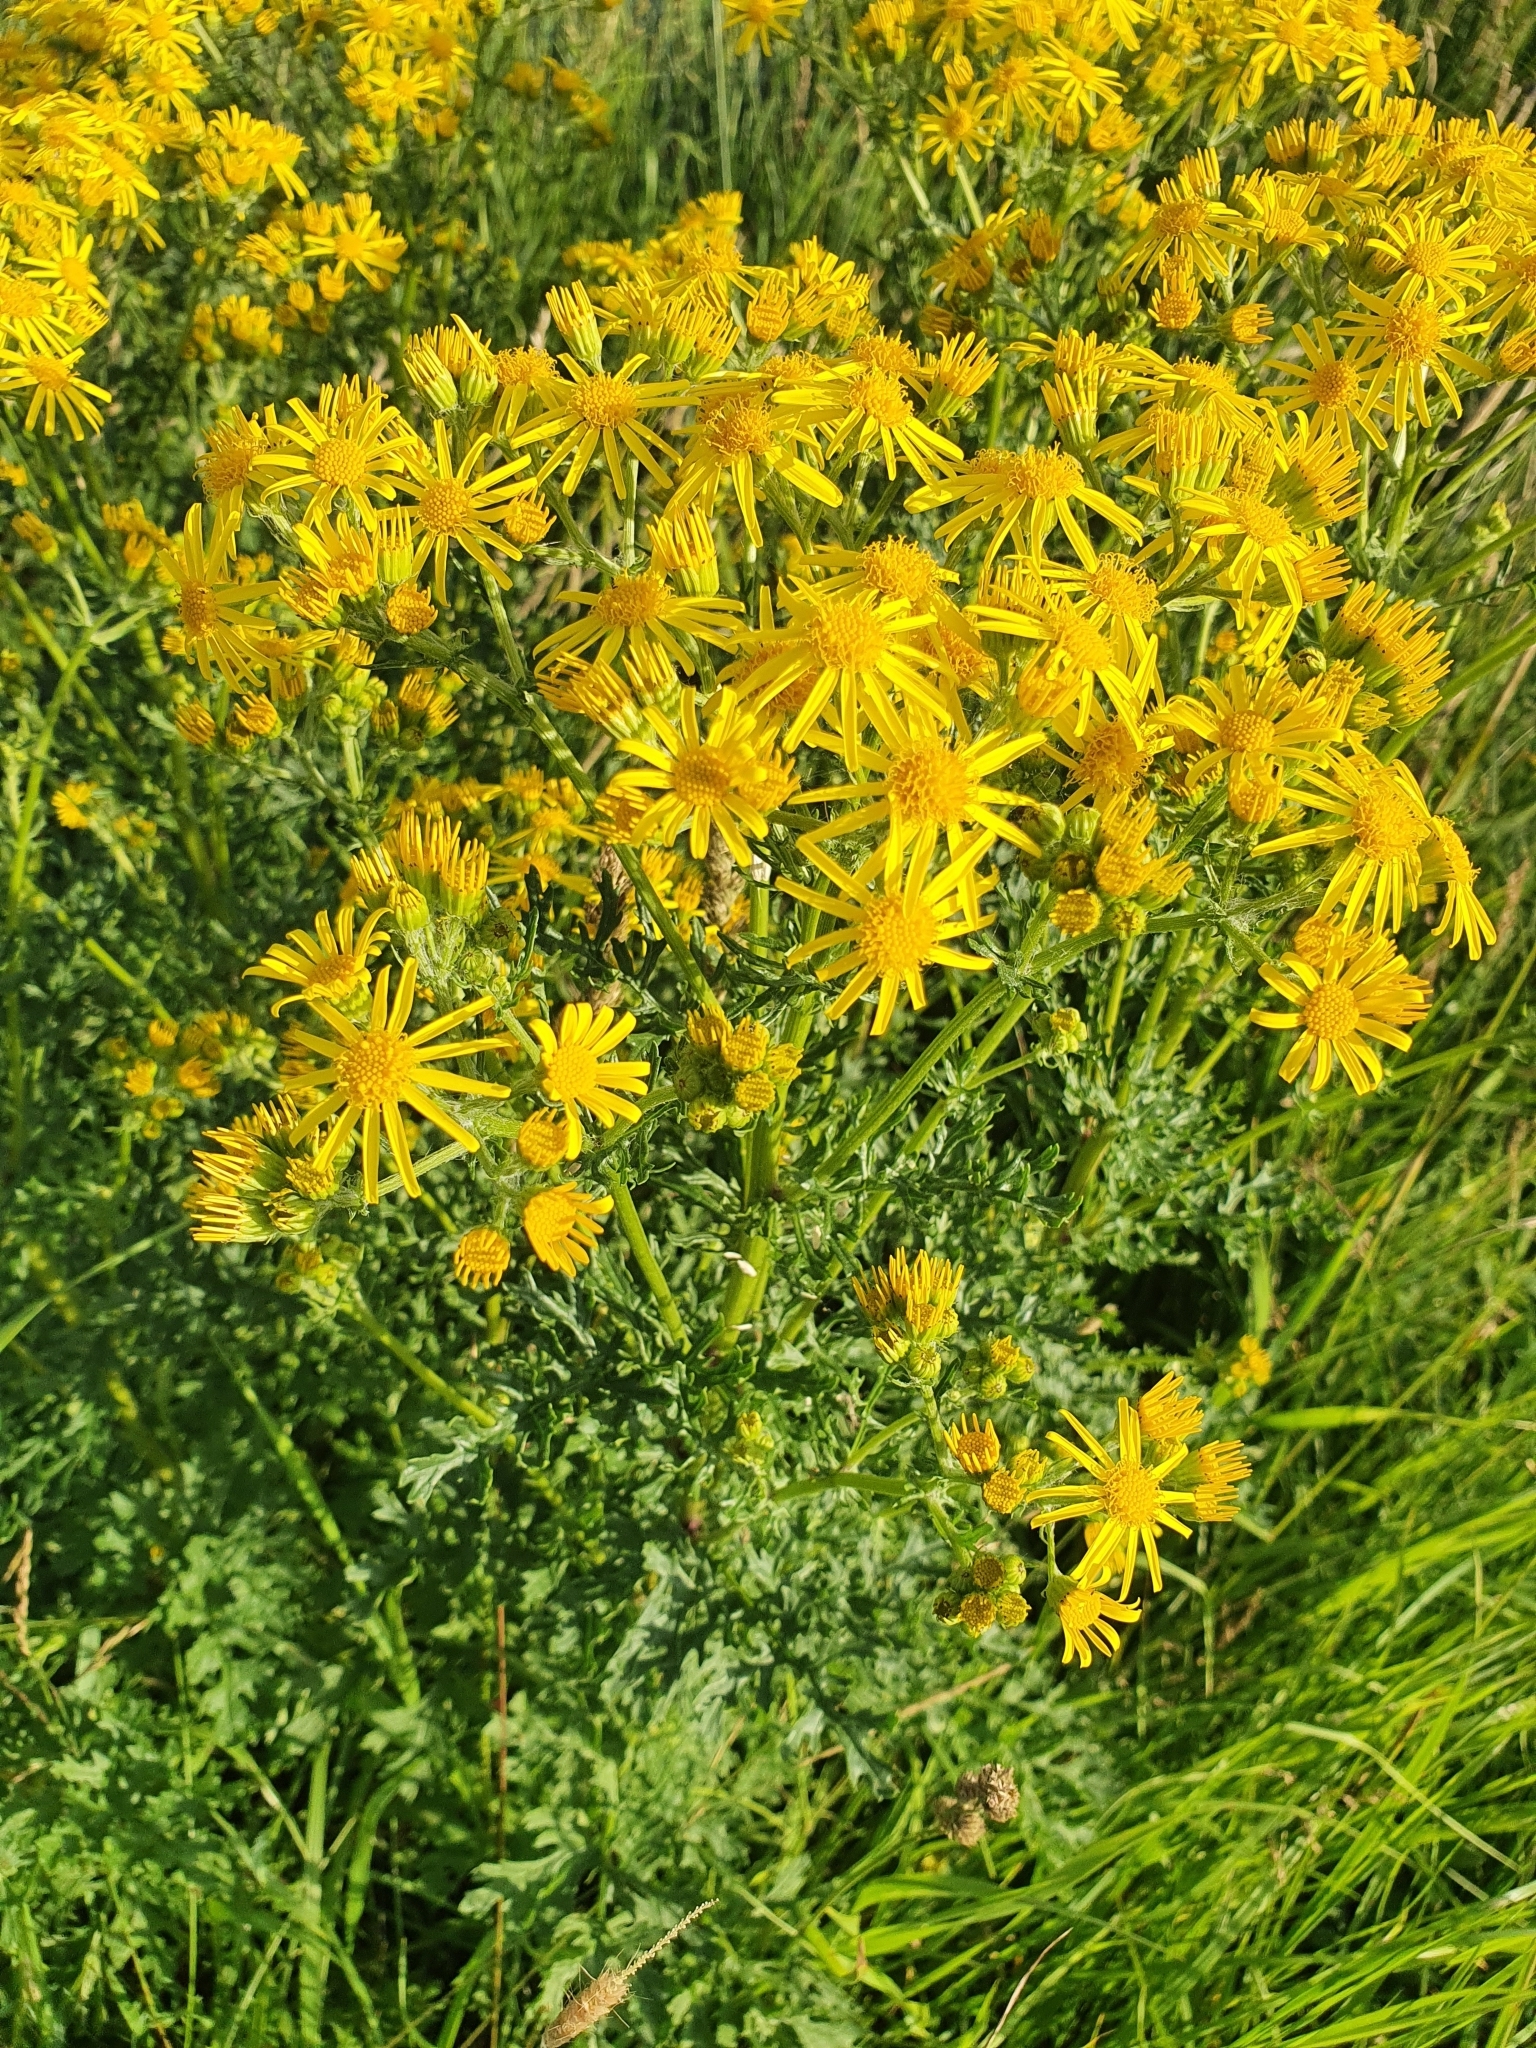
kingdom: Plantae
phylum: Tracheophyta
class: Magnoliopsida
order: Asterales
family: Asteraceae
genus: Jacobaea
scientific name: Jacobaea vulgaris
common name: Stinking willie
